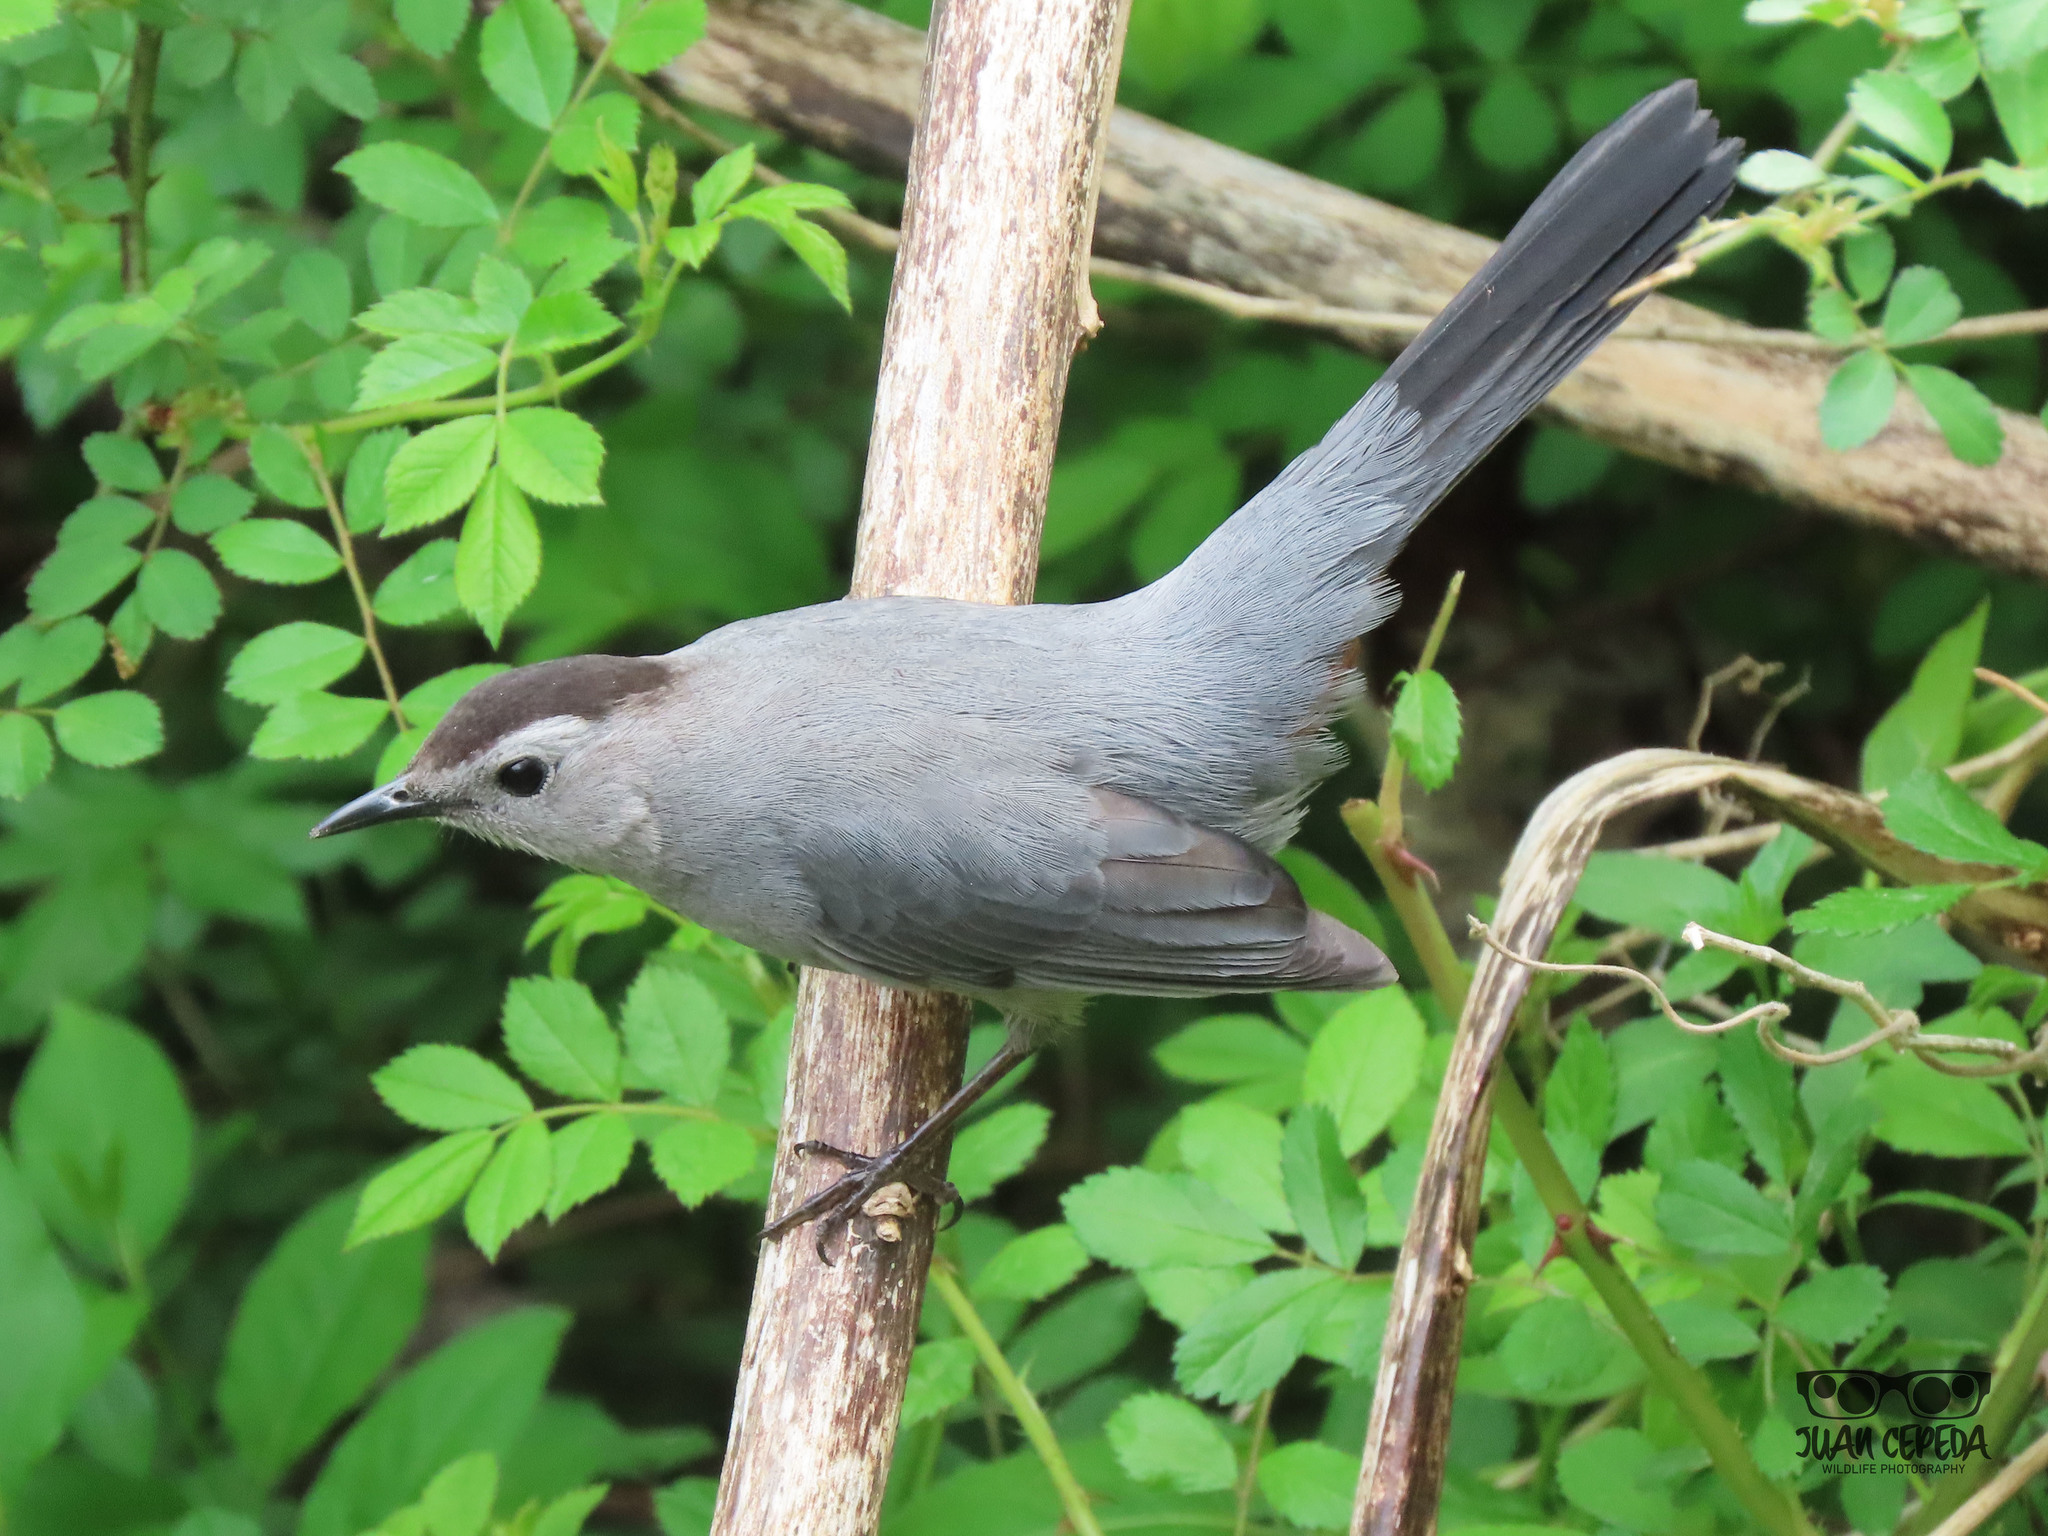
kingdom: Animalia
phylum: Chordata
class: Aves
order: Passeriformes
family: Mimidae
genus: Dumetella
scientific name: Dumetella carolinensis
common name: Gray catbird
